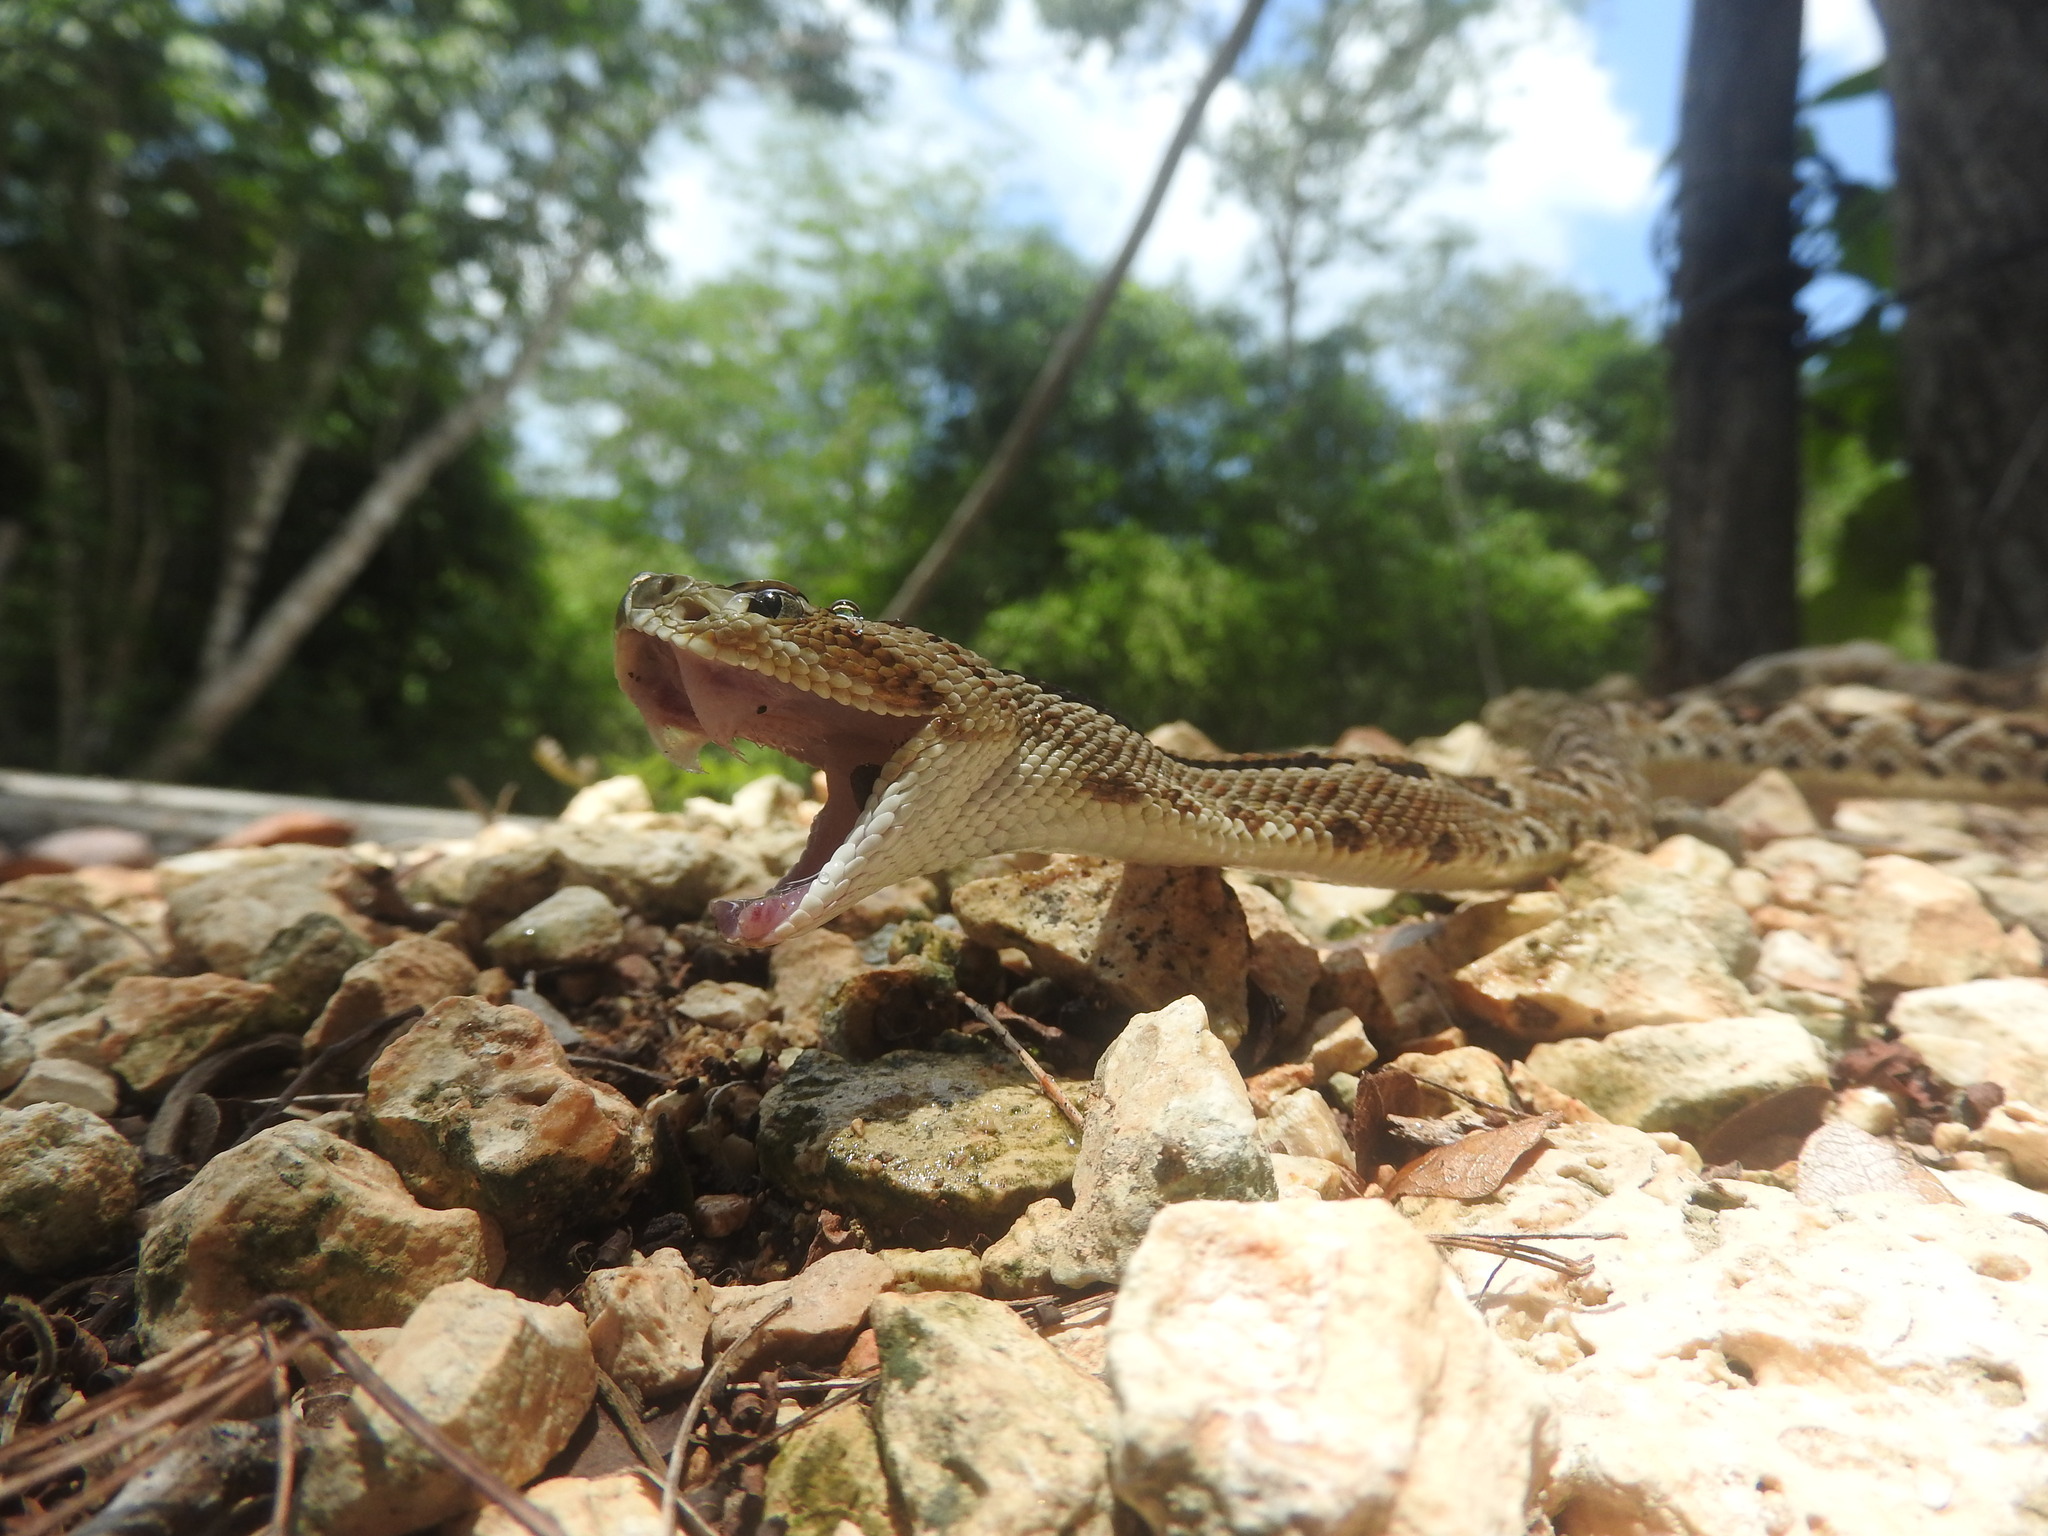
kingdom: Animalia
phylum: Chordata
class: Squamata
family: Viperidae
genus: Crotalus
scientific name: Crotalus tzabcan
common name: Yucatan neotropical rattlesnake
